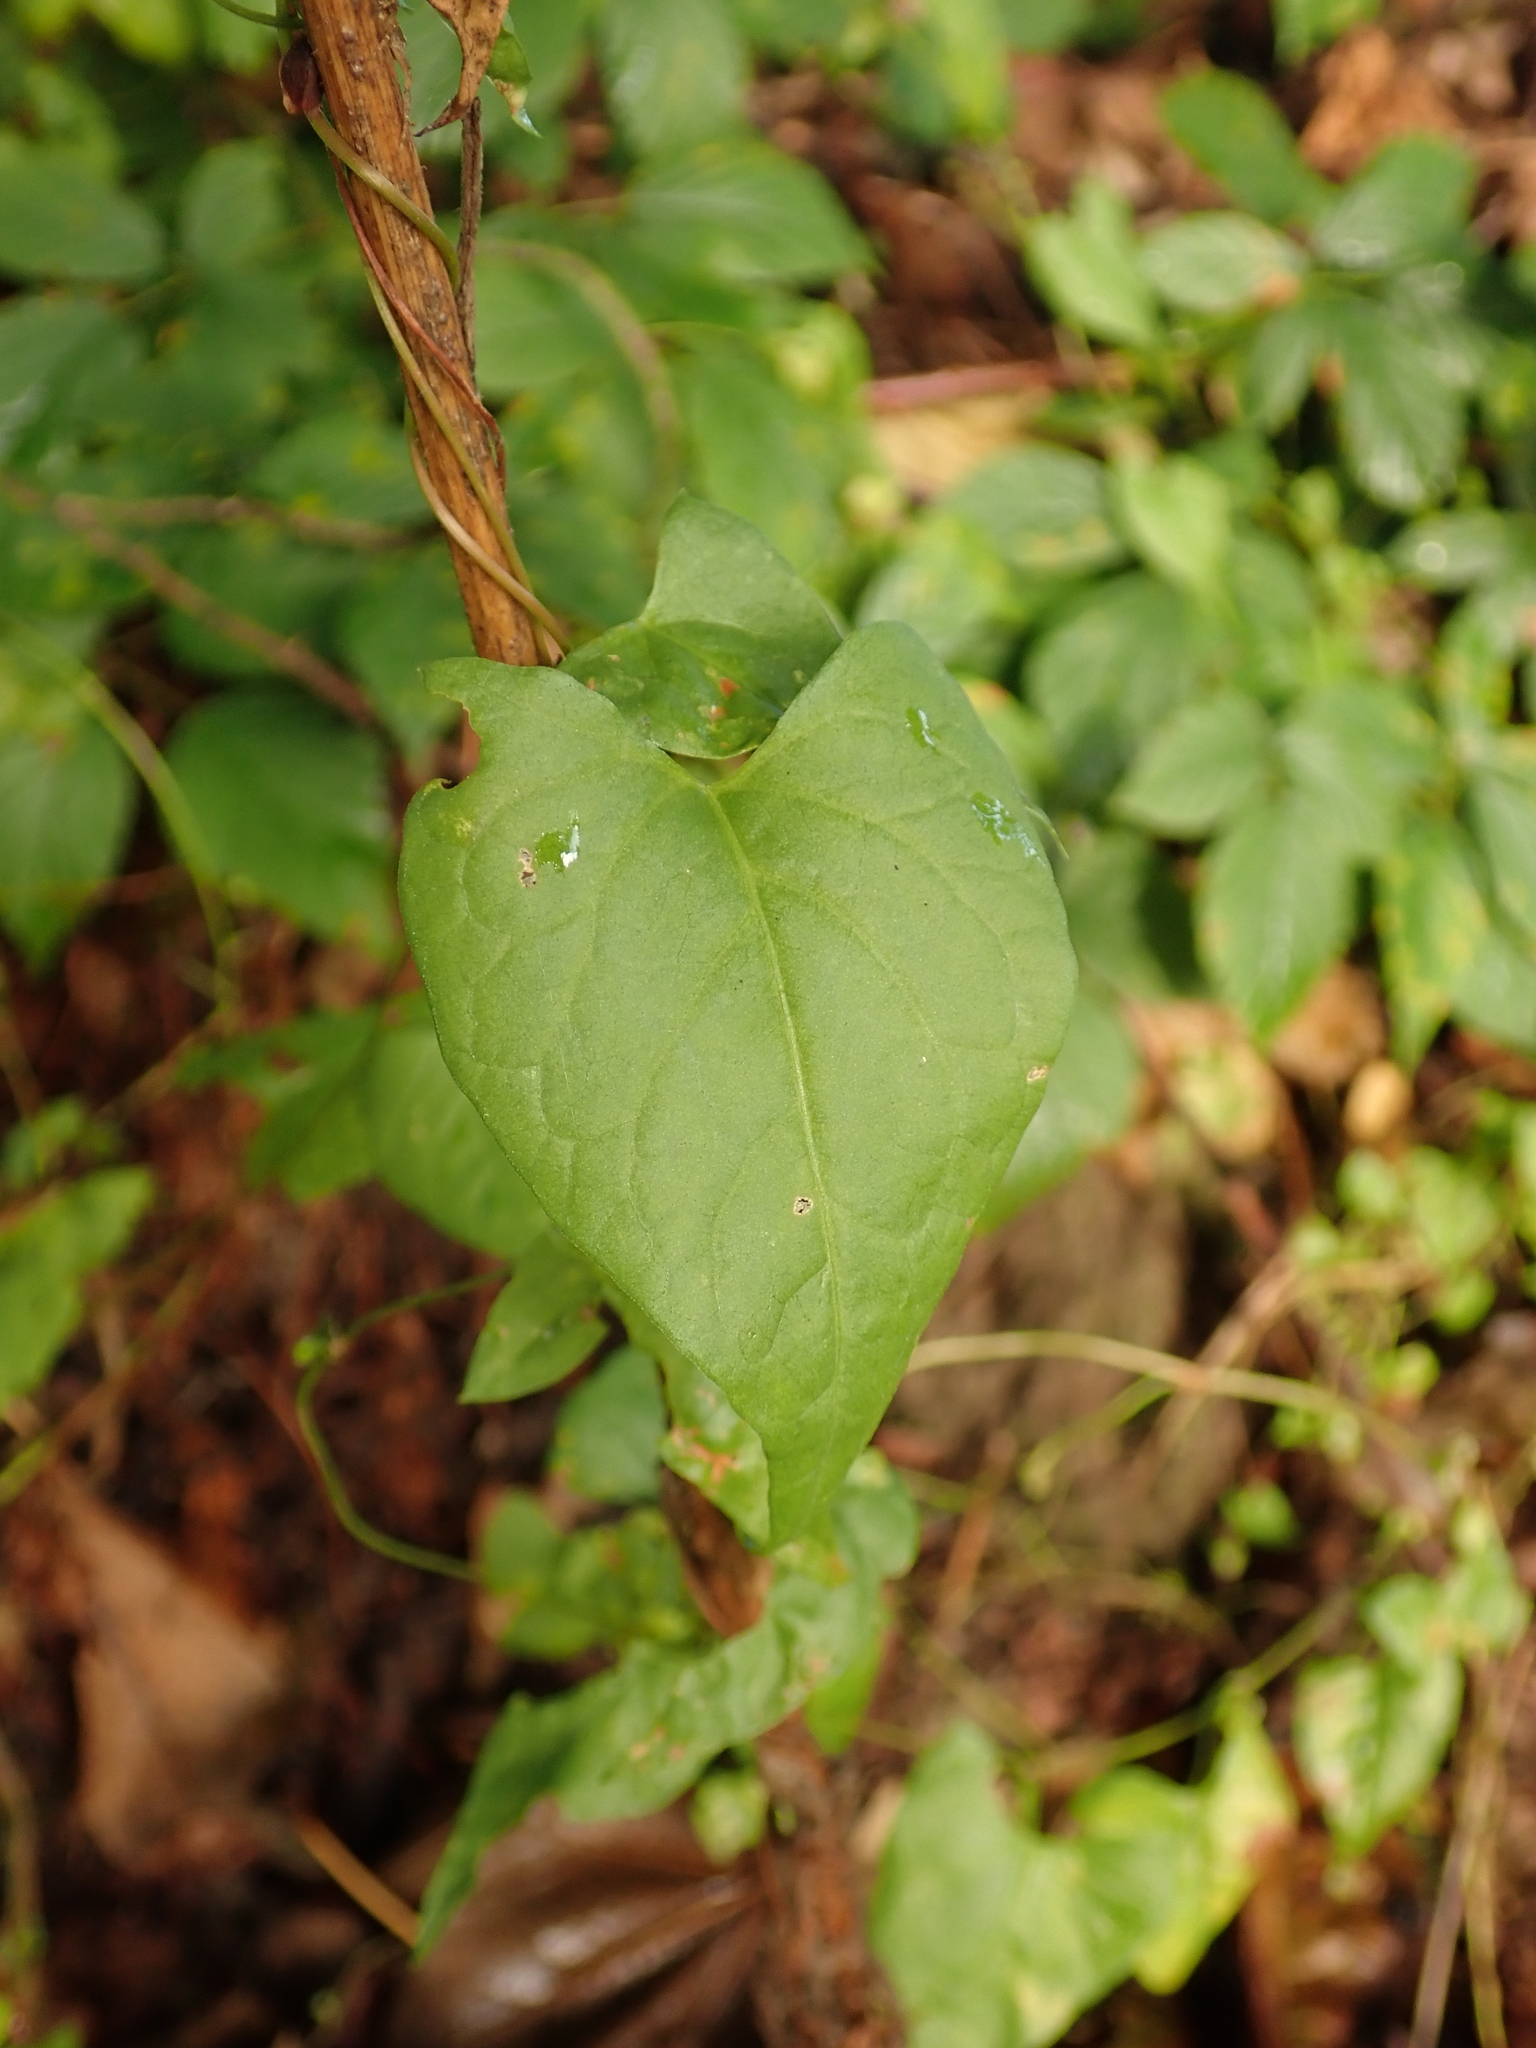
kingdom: Plantae
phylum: Tracheophyta
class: Magnoliopsida
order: Caryophyllales
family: Polygonaceae
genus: Fallopia
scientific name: Fallopia dumetorum
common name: Copse-bindweed
